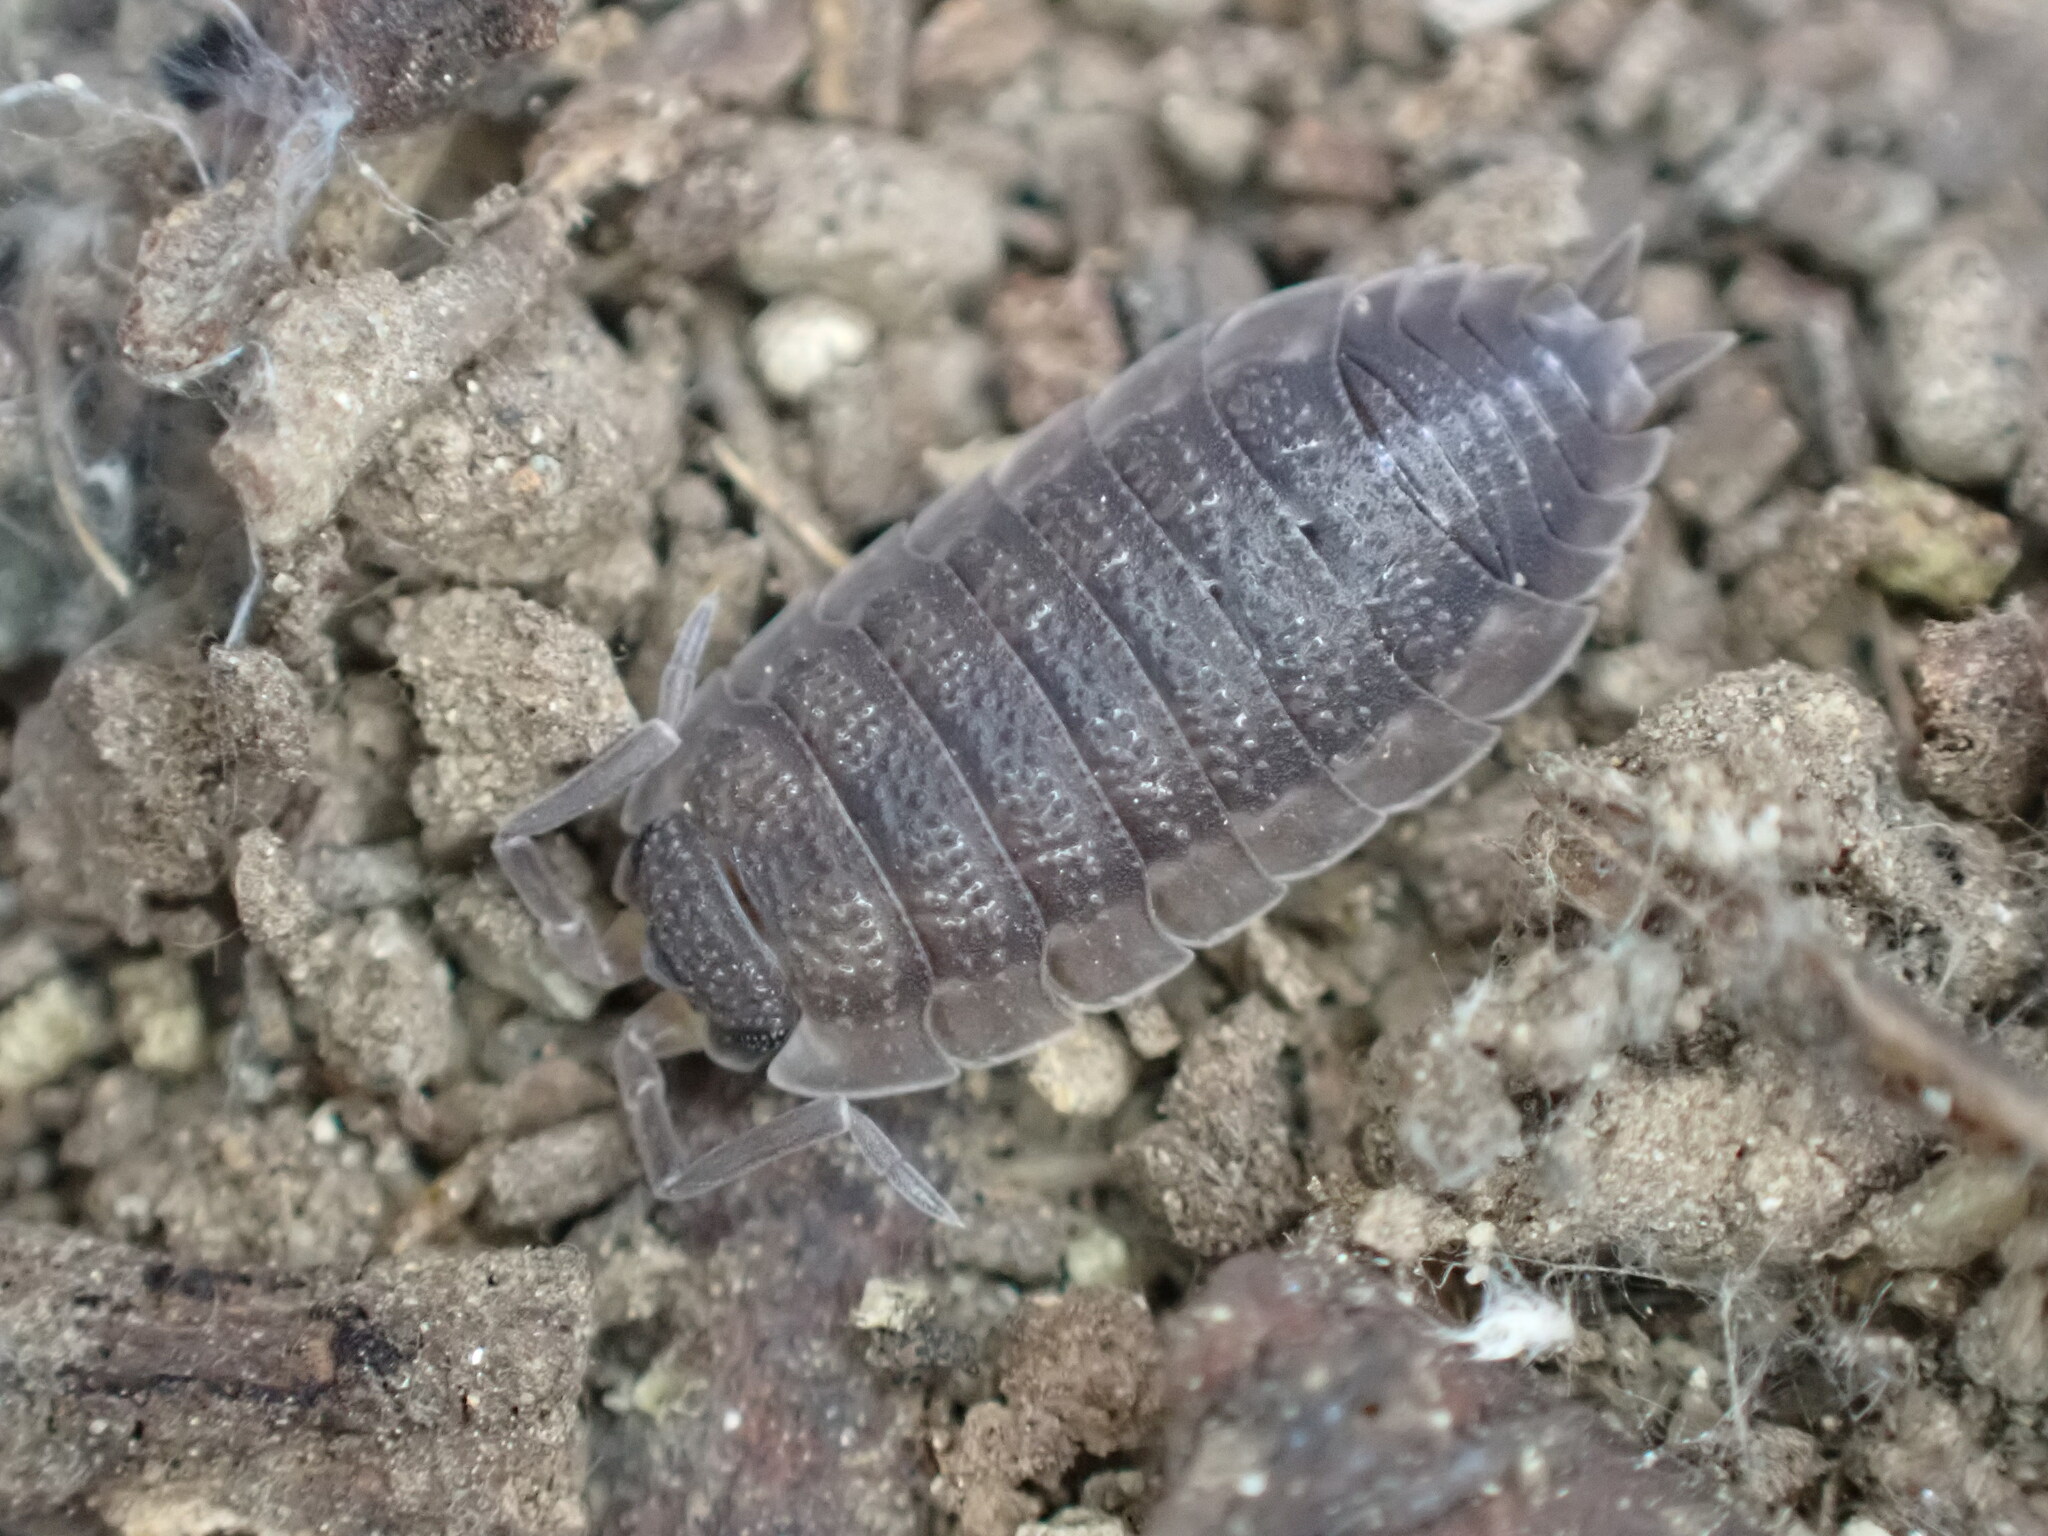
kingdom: Animalia
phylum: Arthropoda
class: Malacostraca
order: Isopoda
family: Porcellionidae
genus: Porcellio
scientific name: Porcellio scaber
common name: Common rough woodlouse
